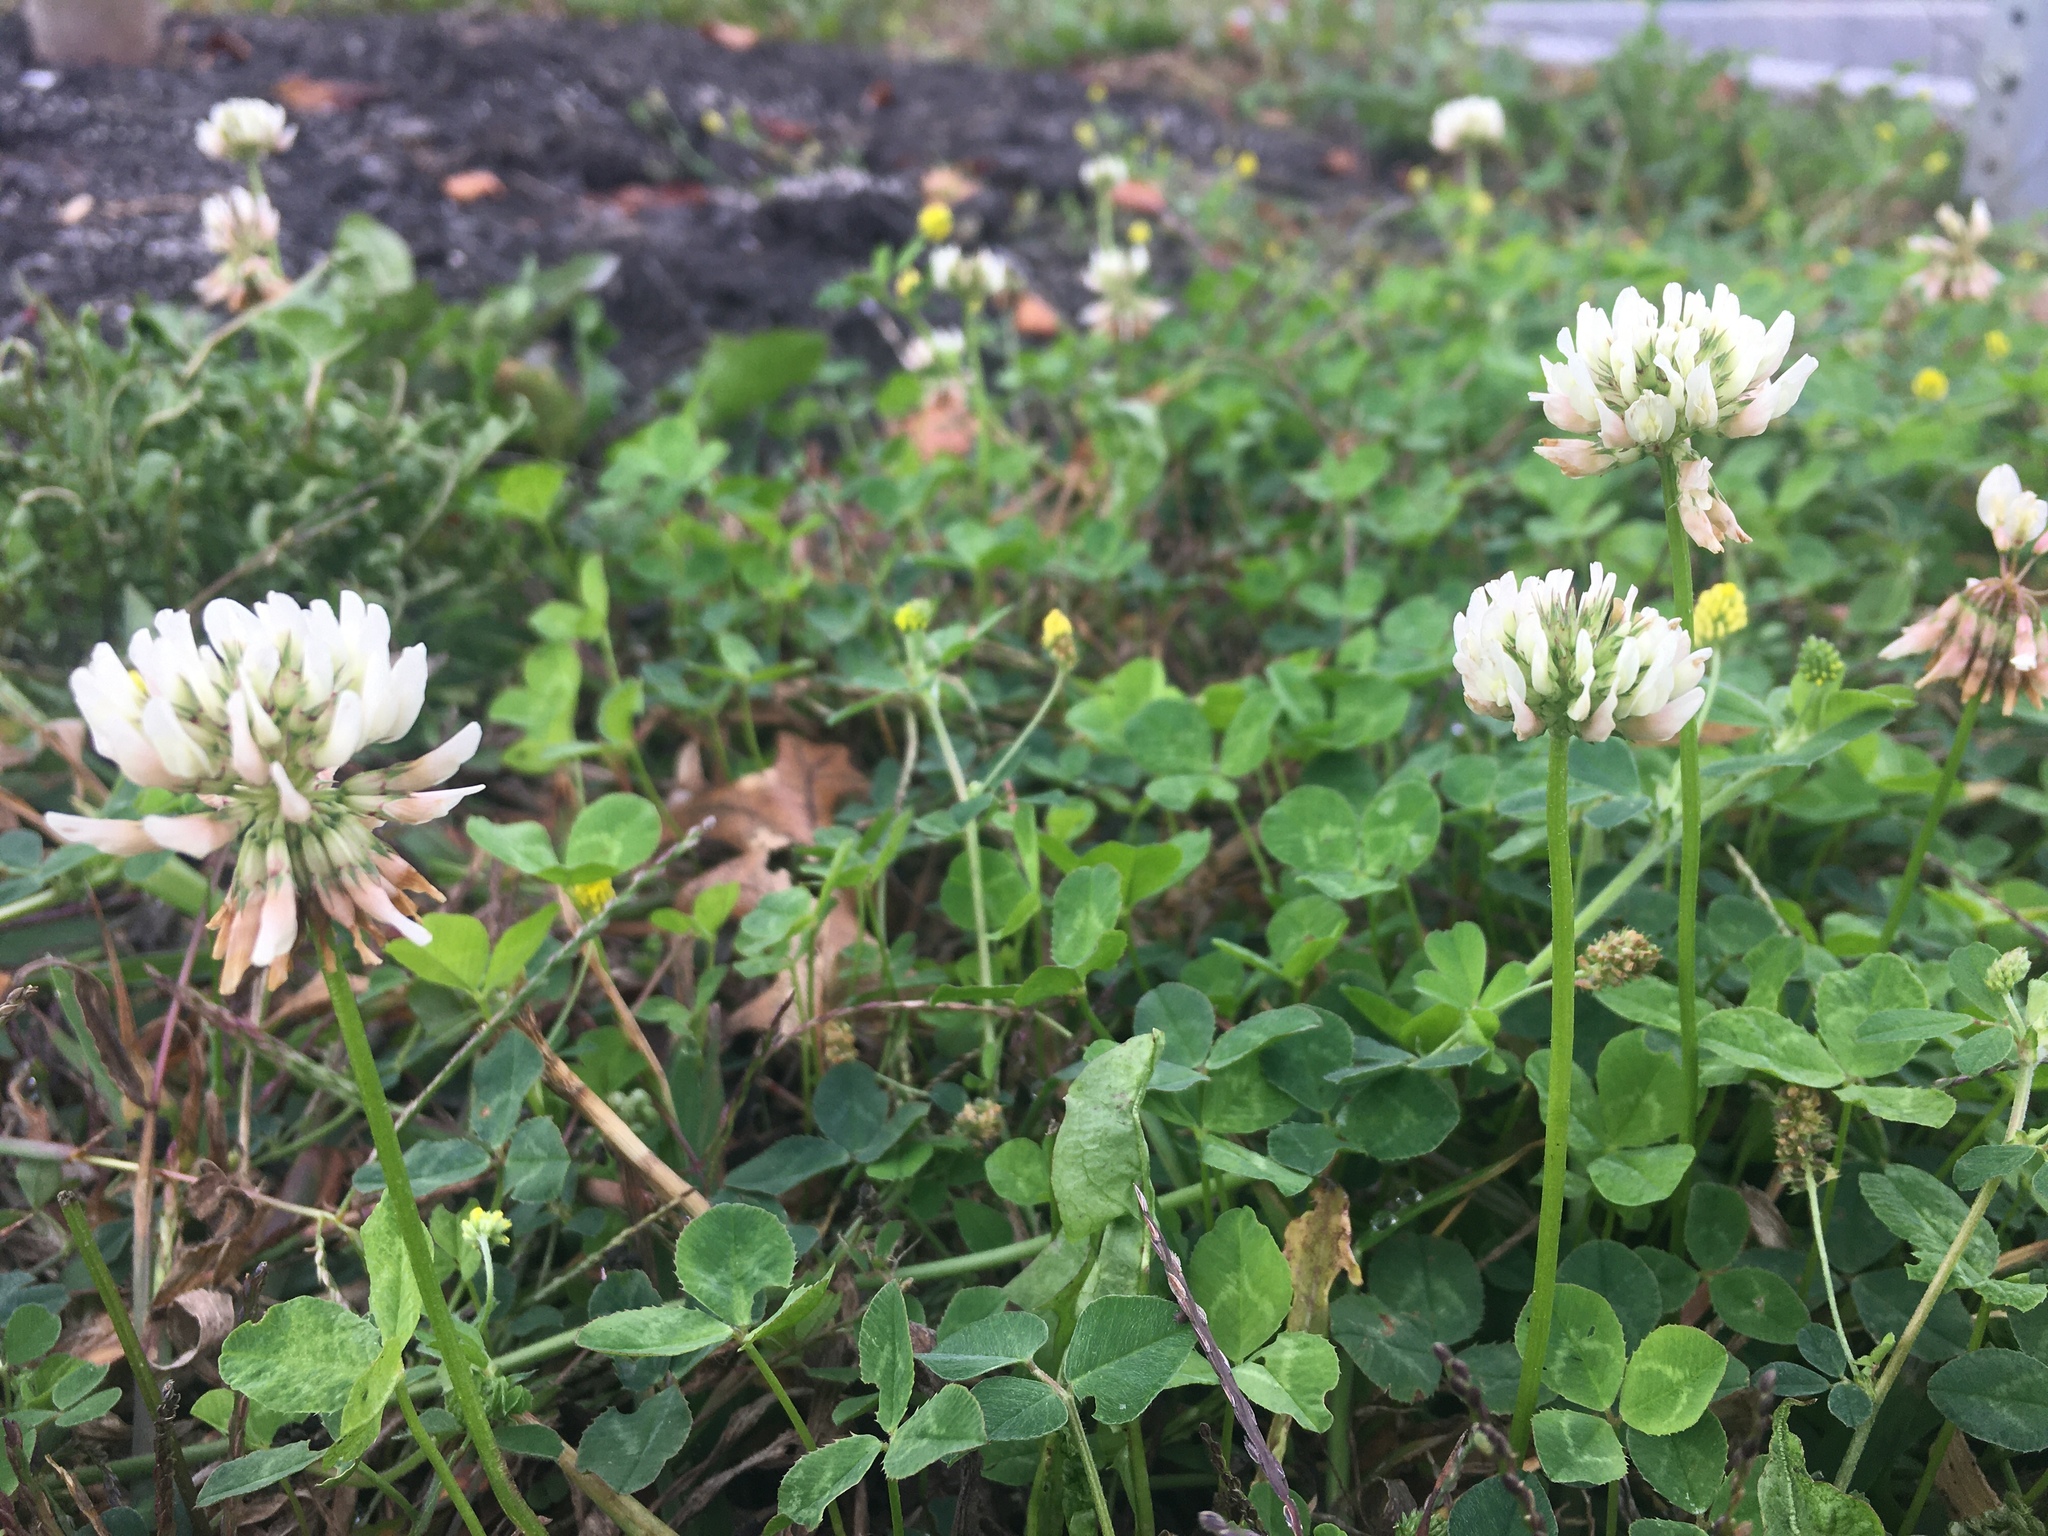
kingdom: Plantae
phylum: Tracheophyta
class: Magnoliopsida
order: Fabales
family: Fabaceae
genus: Trifolium
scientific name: Trifolium repens
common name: White clover
